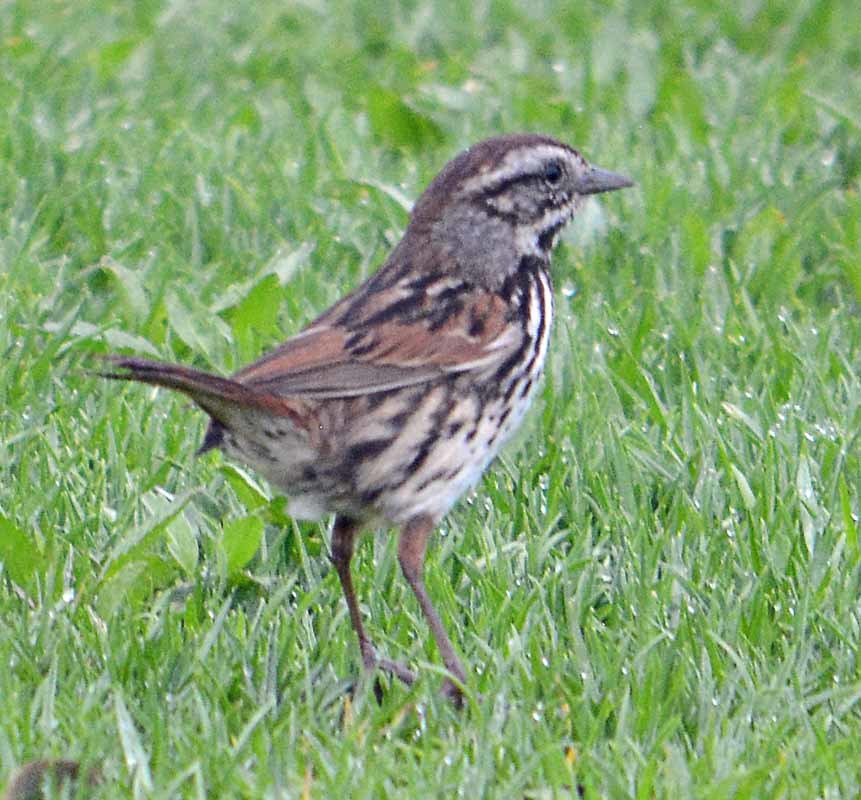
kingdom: Animalia
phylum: Chordata
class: Aves
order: Passeriformes
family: Passerellidae
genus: Melospiza
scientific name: Melospiza melodia
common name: Song sparrow
